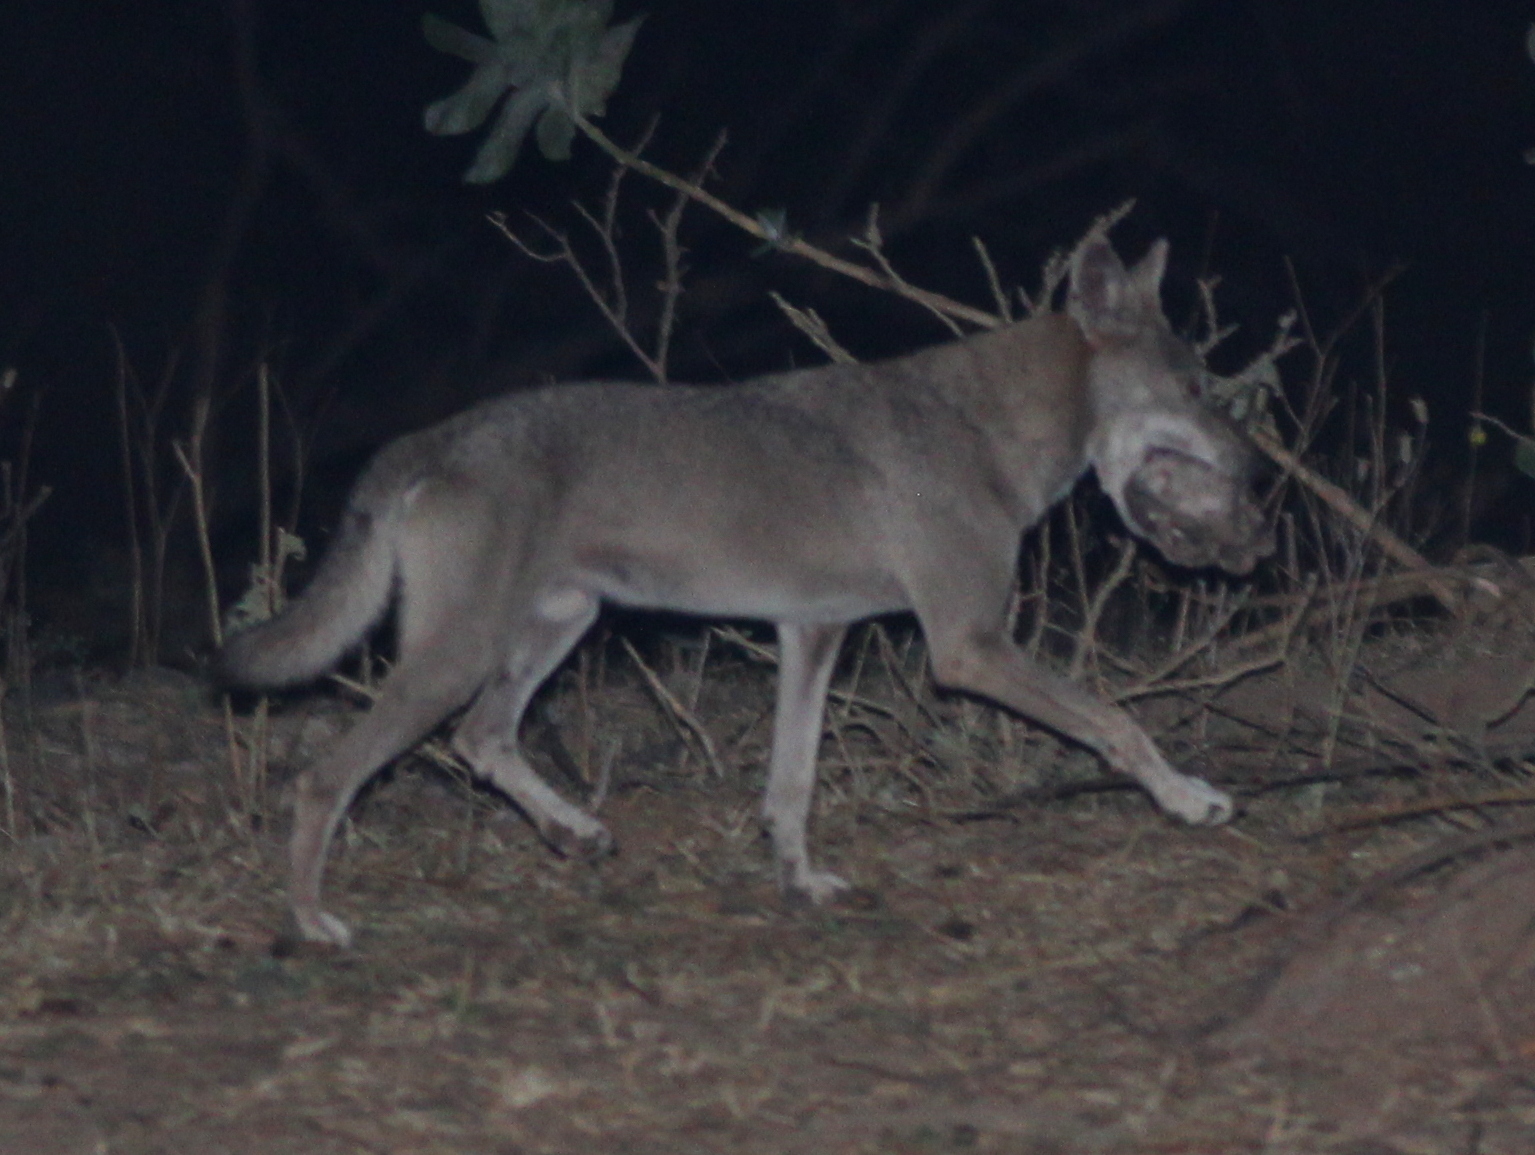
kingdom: Animalia
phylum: Chordata
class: Mammalia
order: Carnivora
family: Canidae
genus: Canis
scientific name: Canis lupus
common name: Gray wolf
